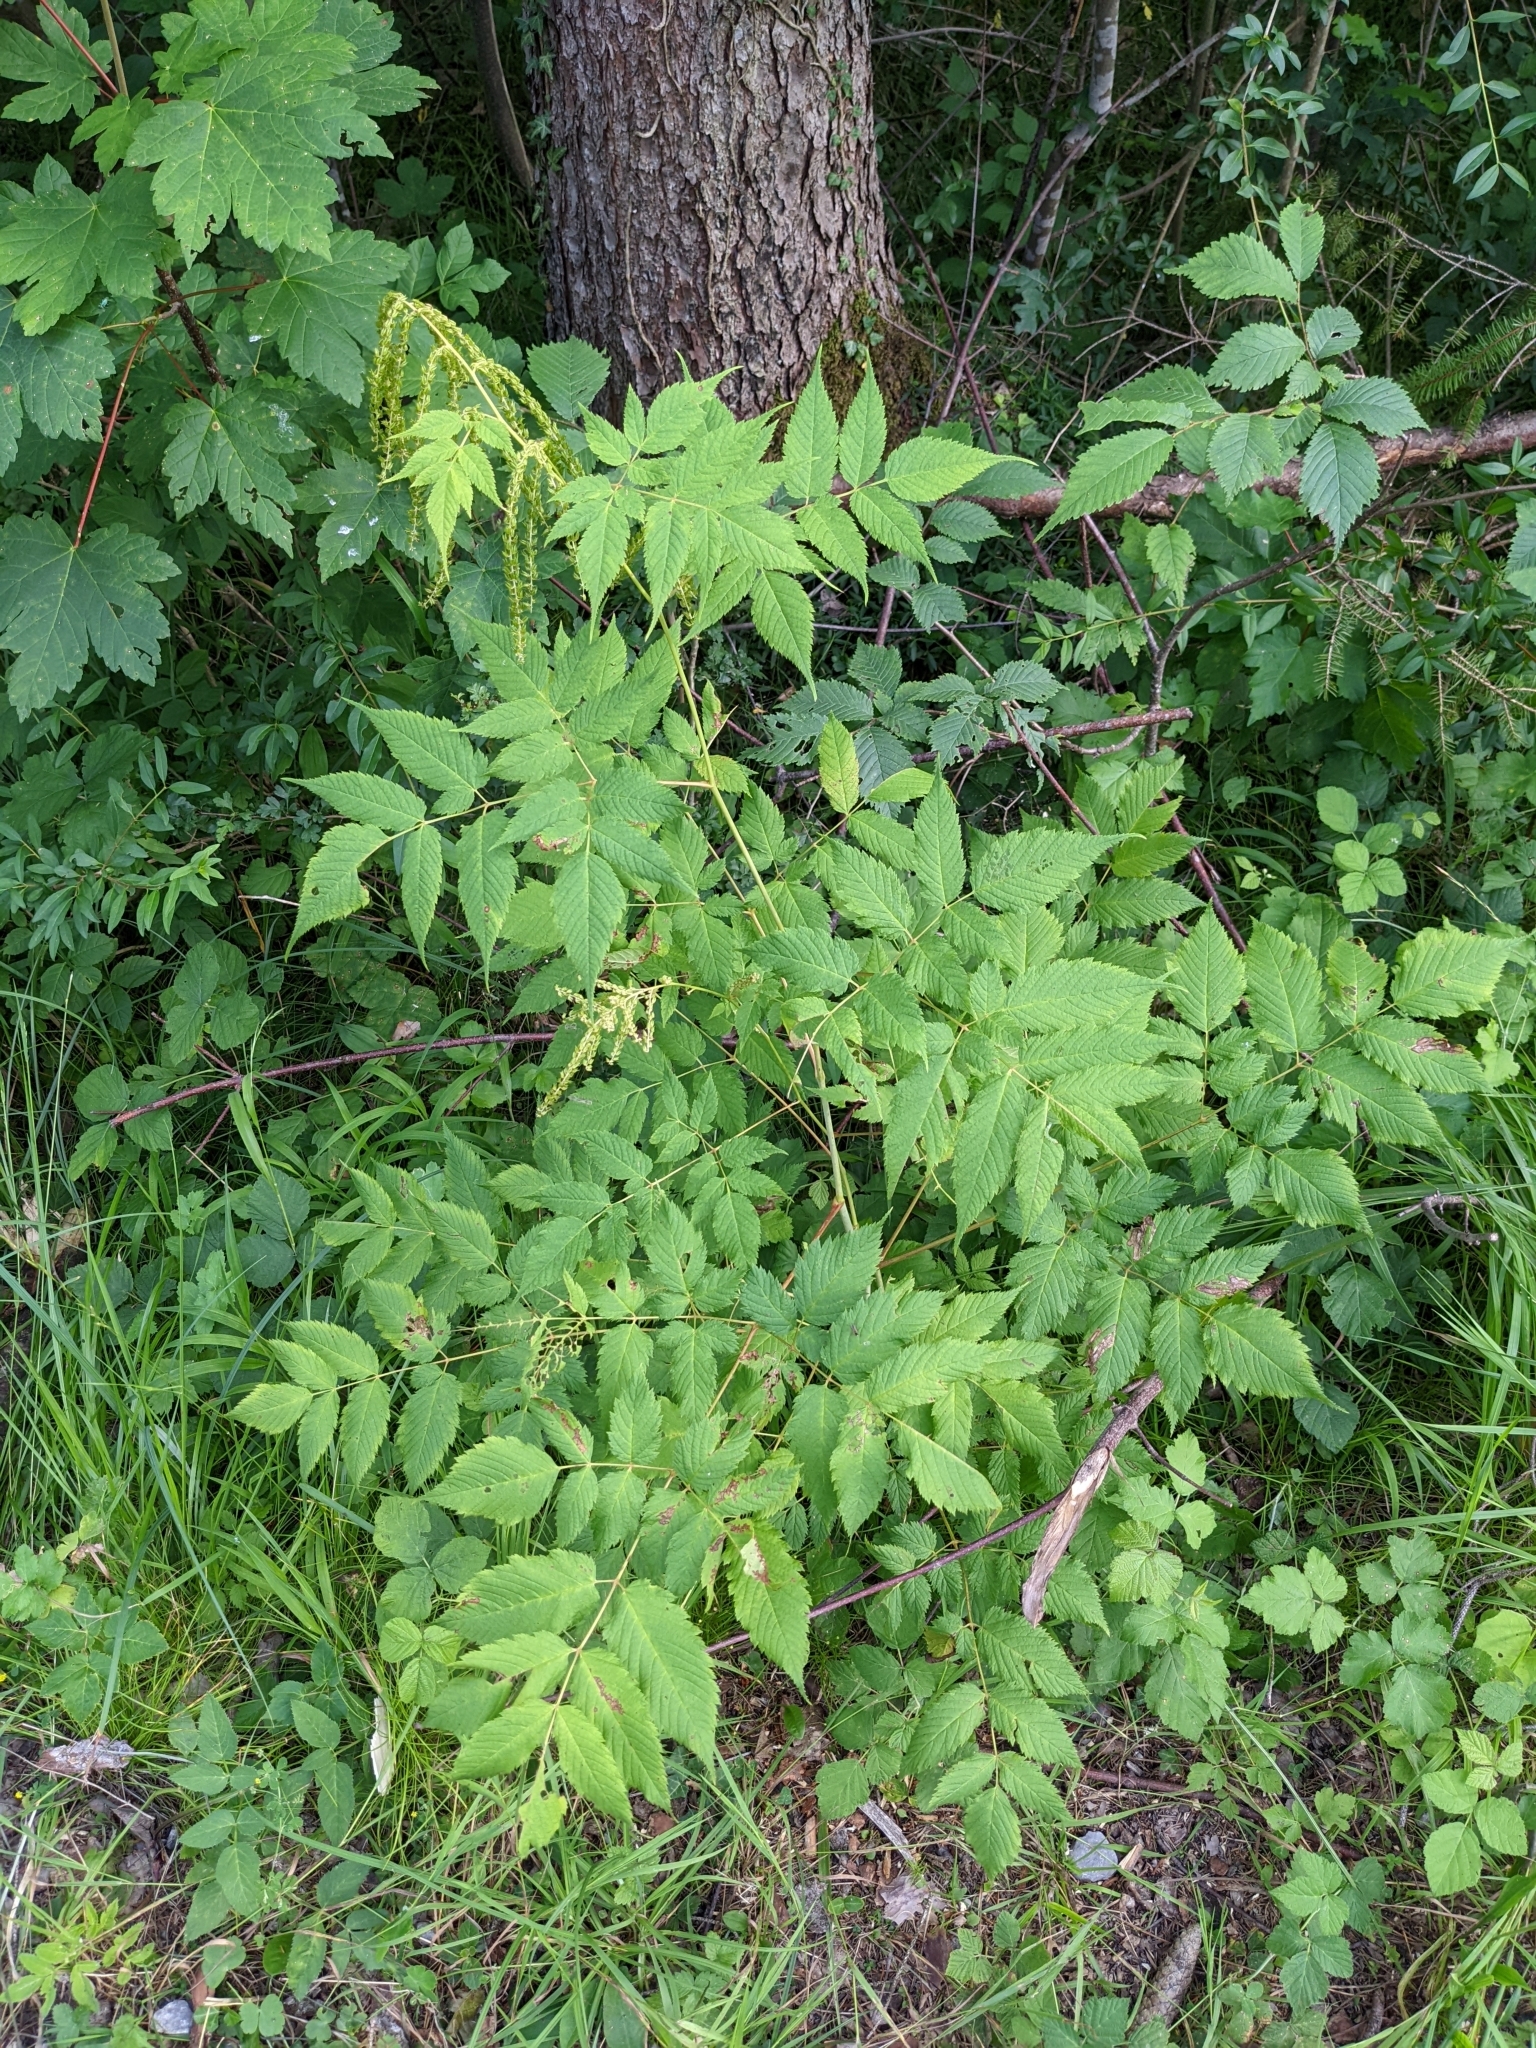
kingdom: Plantae
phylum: Tracheophyta
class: Magnoliopsida
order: Rosales
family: Rosaceae
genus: Aruncus
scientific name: Aruncus dioicus
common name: Buck's-beard
